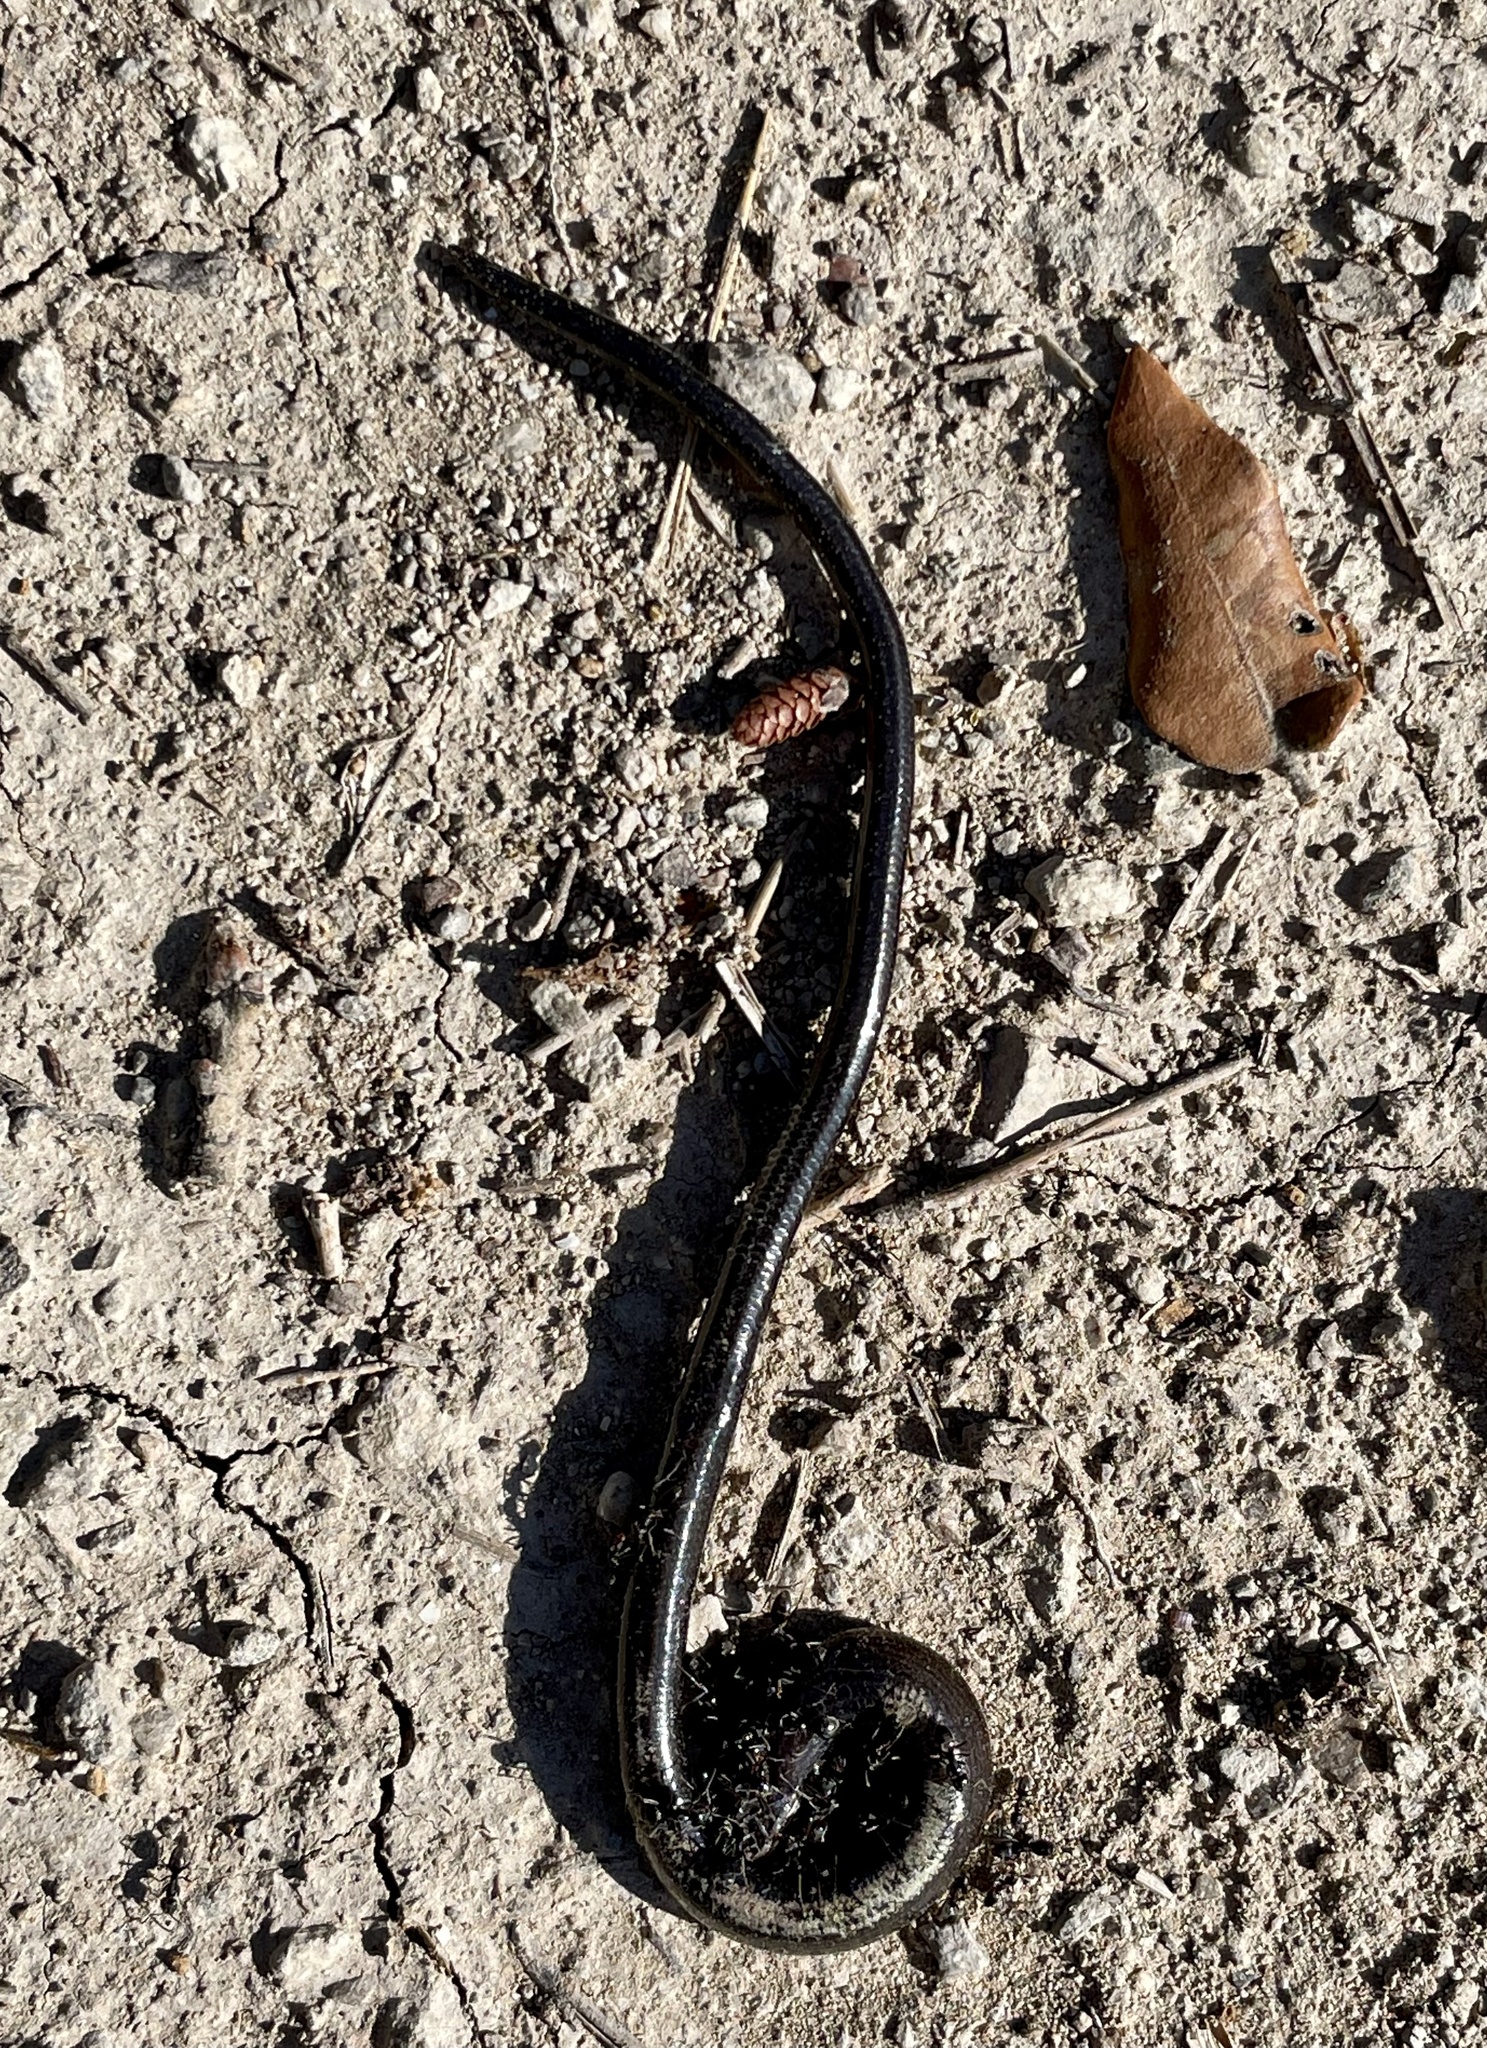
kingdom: Animalia
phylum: Chordata
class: Squamata
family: Anguidae
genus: Anguis
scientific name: Anguis fragilis
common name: Slow worm
